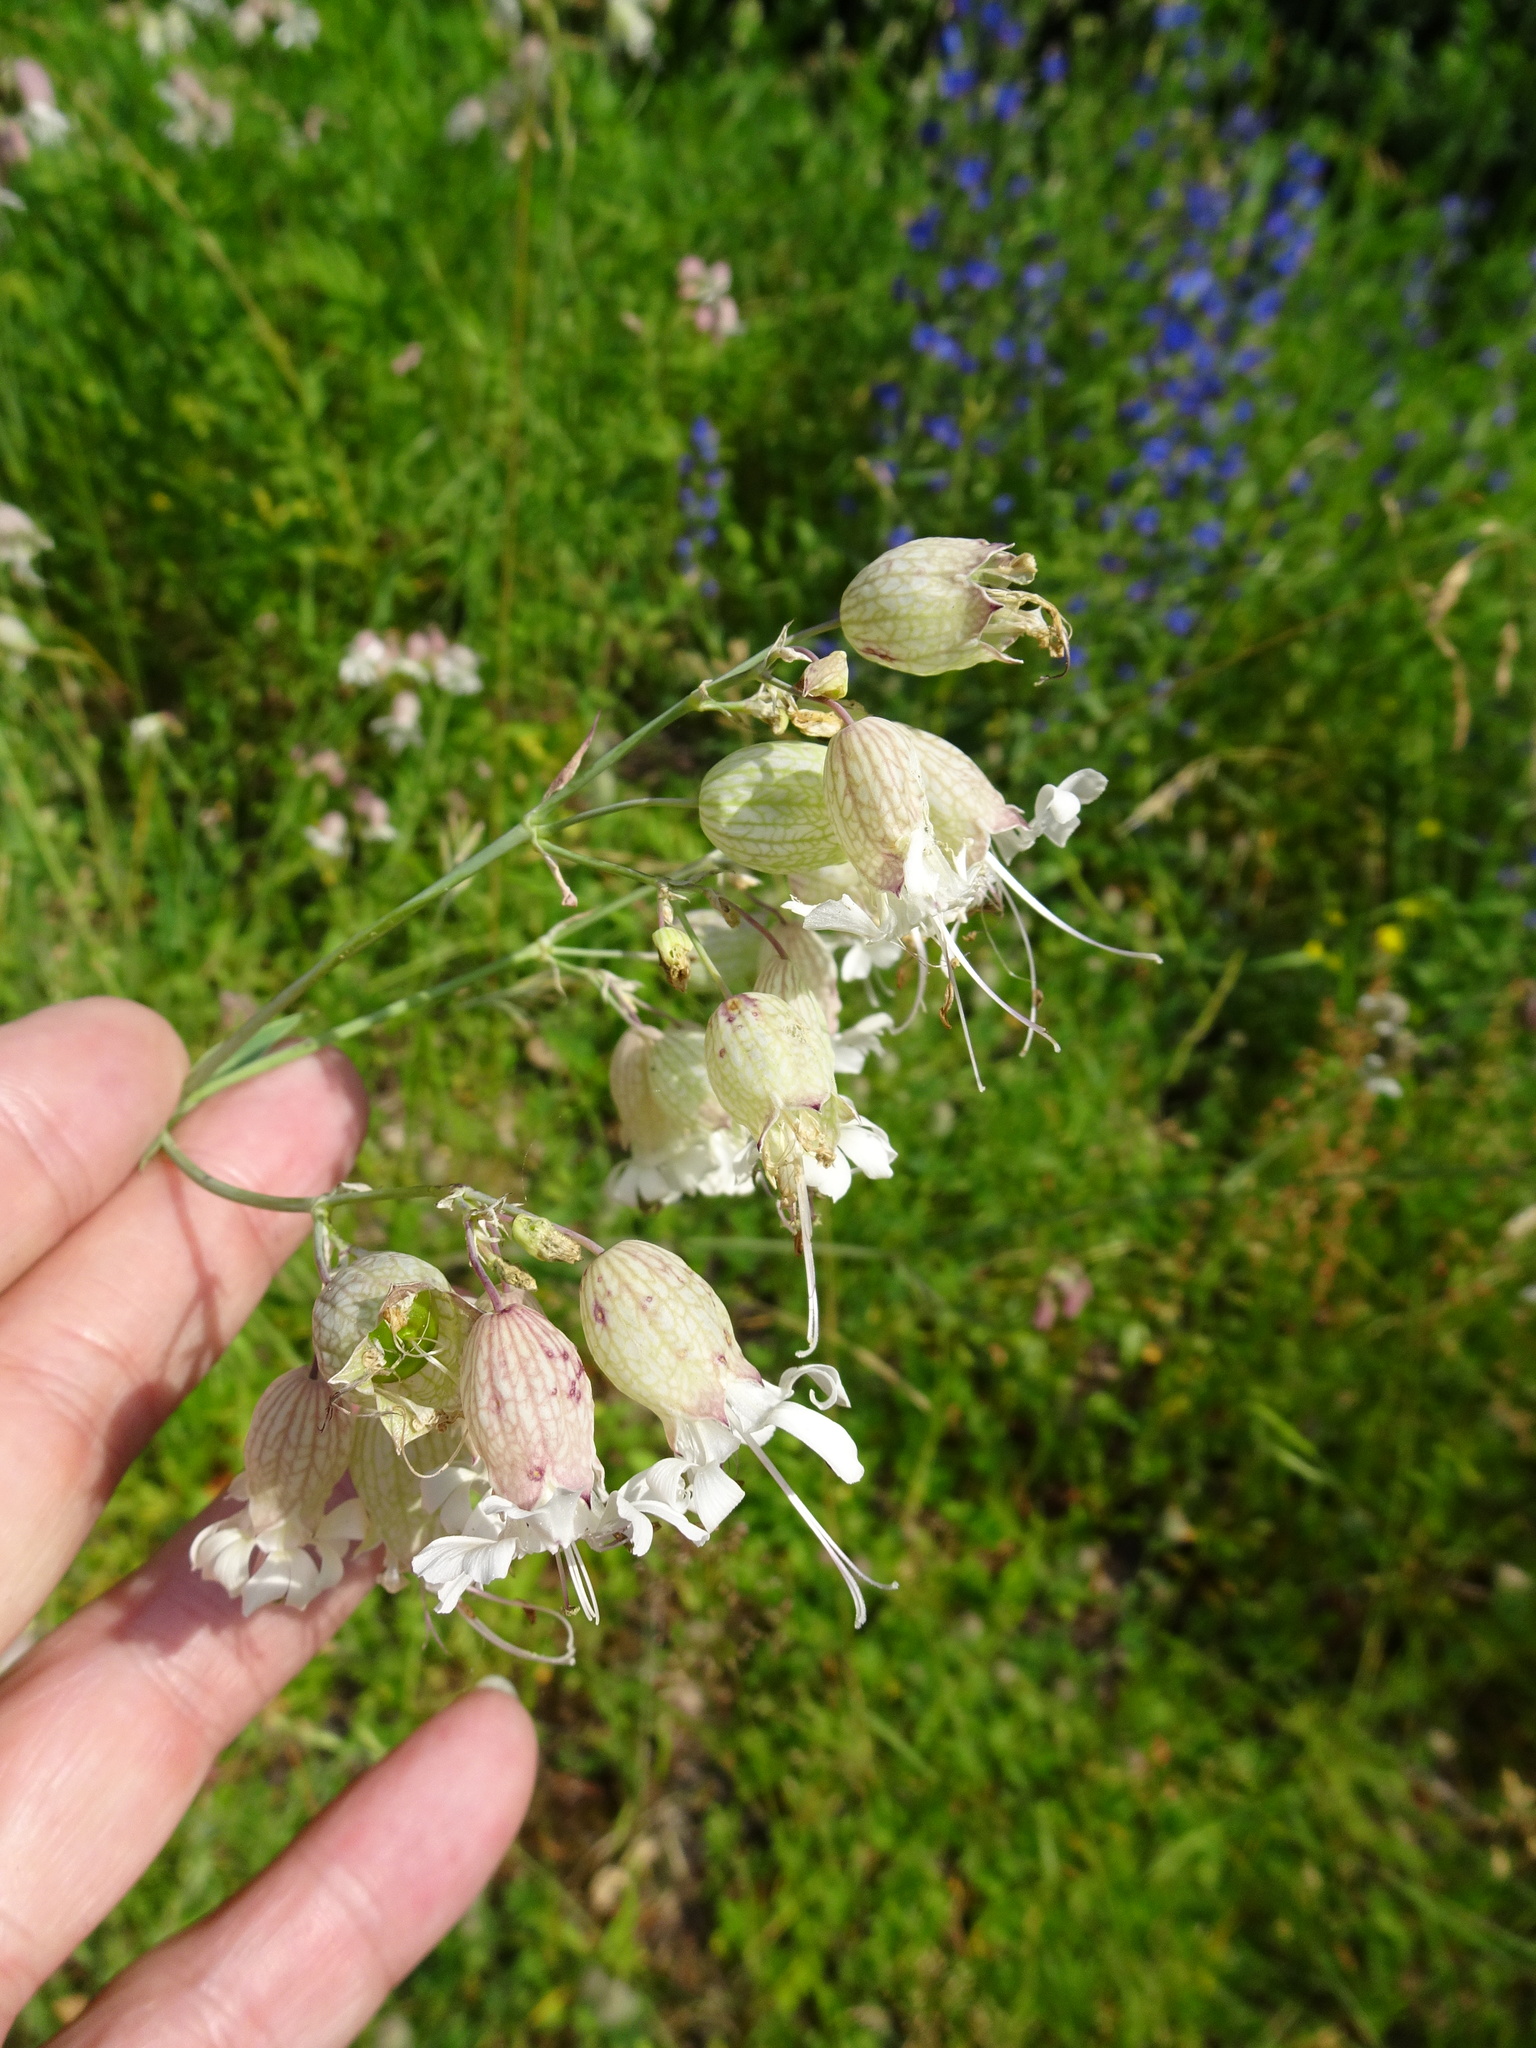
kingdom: Plantae
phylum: Tracheophyta
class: Magnoliopsida
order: Caryophyllales
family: Caryophyllaceae
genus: Silene
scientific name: Silene vulgaris
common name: Bladder campion
